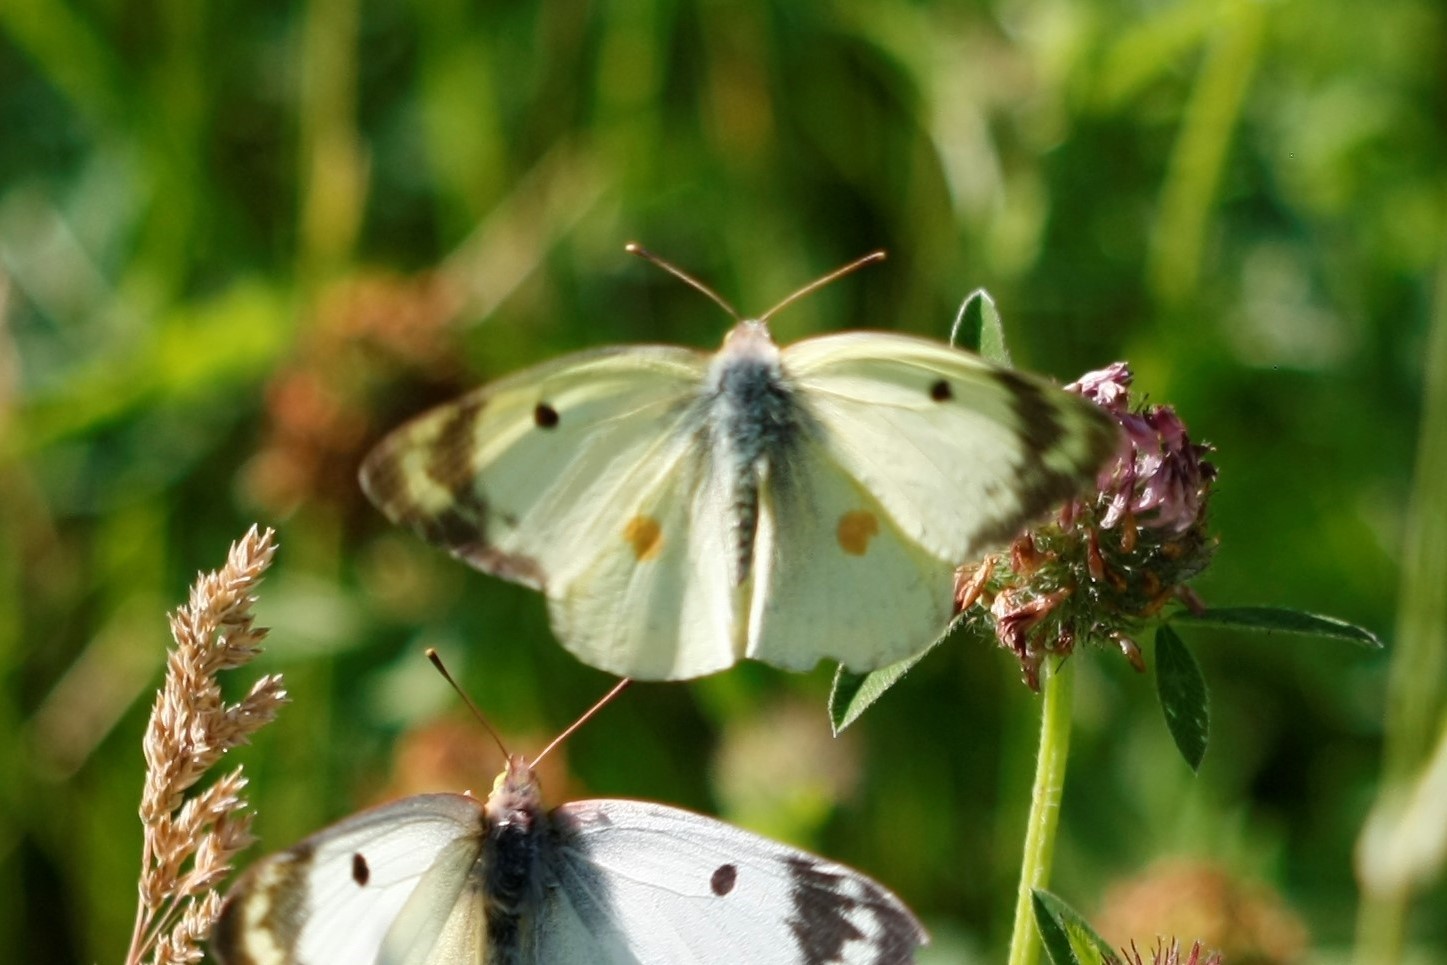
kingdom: Animalia
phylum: Arthropoda
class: Insecta
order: Lepidoptera
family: Pieridae
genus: Colias
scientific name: Colias alfacariensis
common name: Berger's clouded yellow
